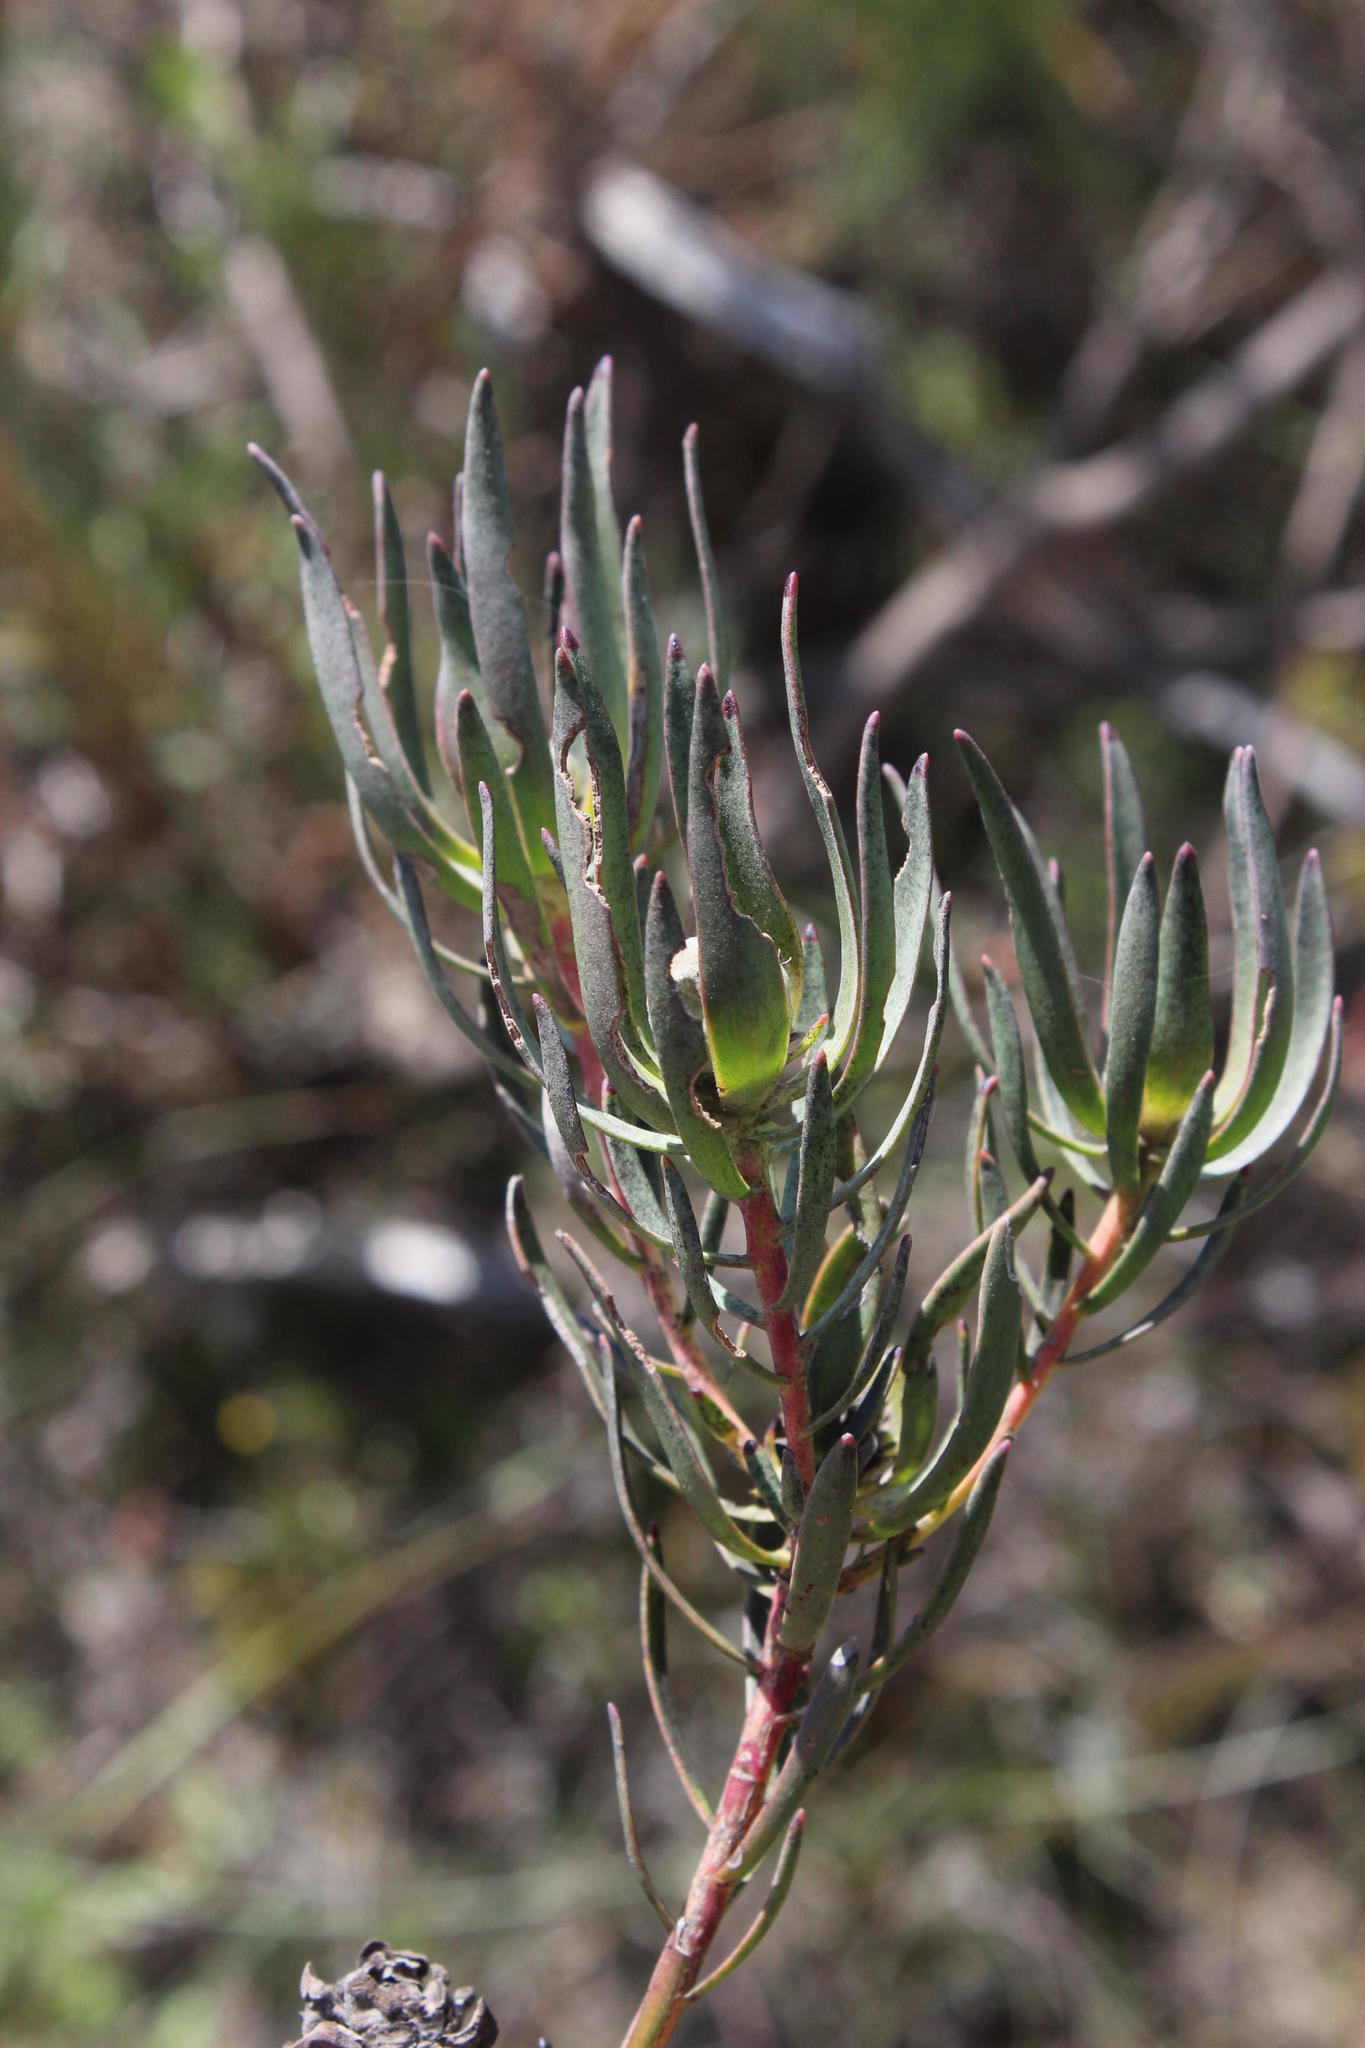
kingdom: Plantae
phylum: Tracheophyta
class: Magnoliopsida
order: Proteales
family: Proteaceae
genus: Leucadendron
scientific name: Leucadendron lanigerum
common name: Shale conebush
